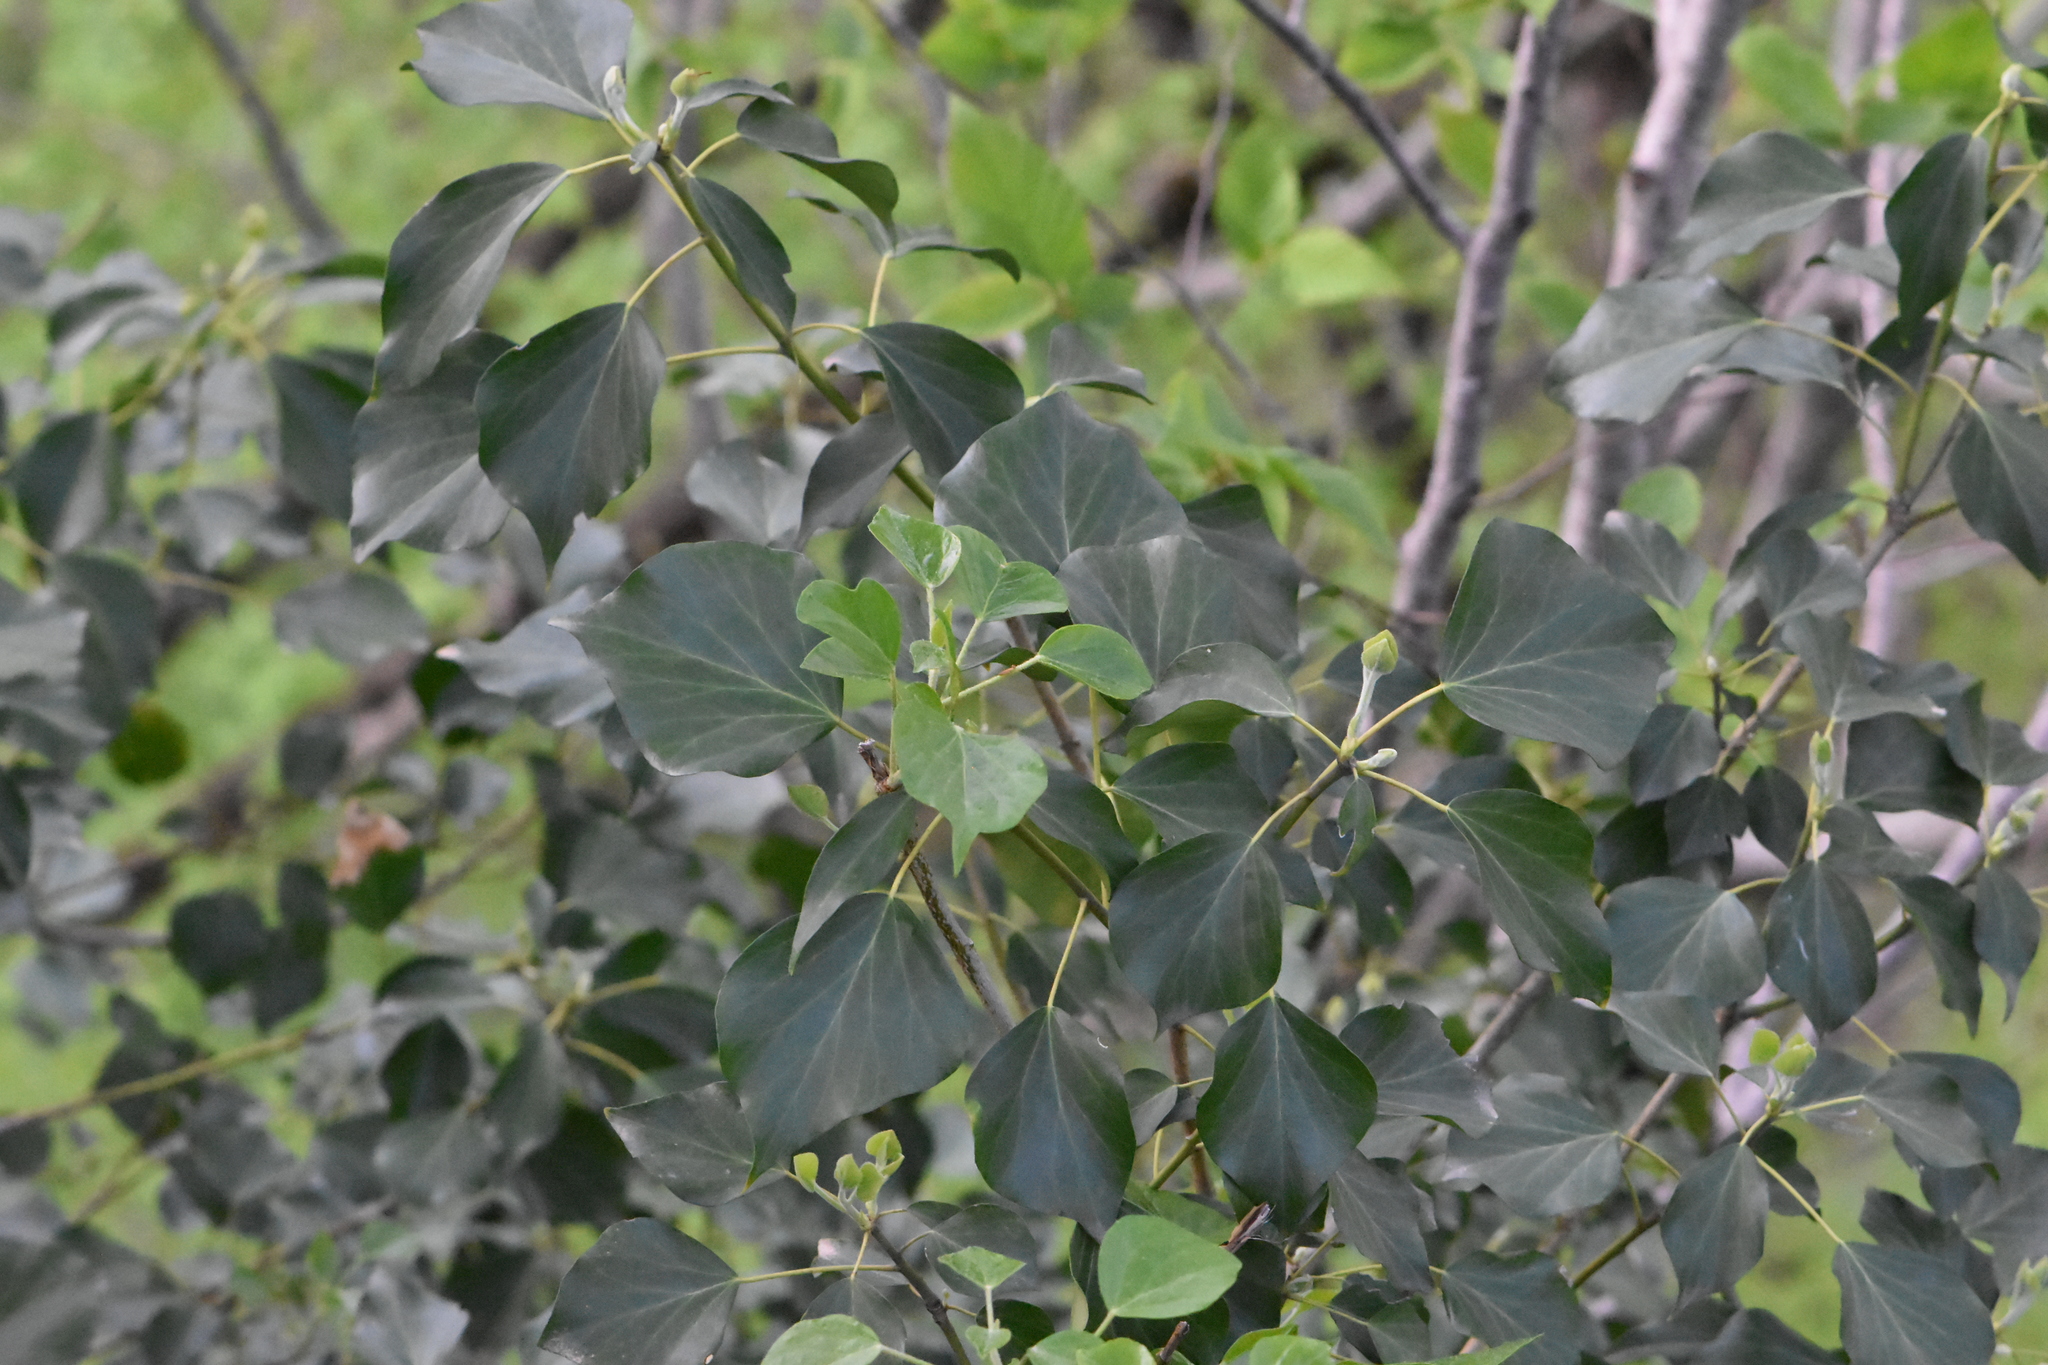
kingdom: Plantae
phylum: Tracheophyta
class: Magnoliopsida
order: Apiales
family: Araliaceae
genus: Hedera
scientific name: Hedera colchica
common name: Persian ivy
